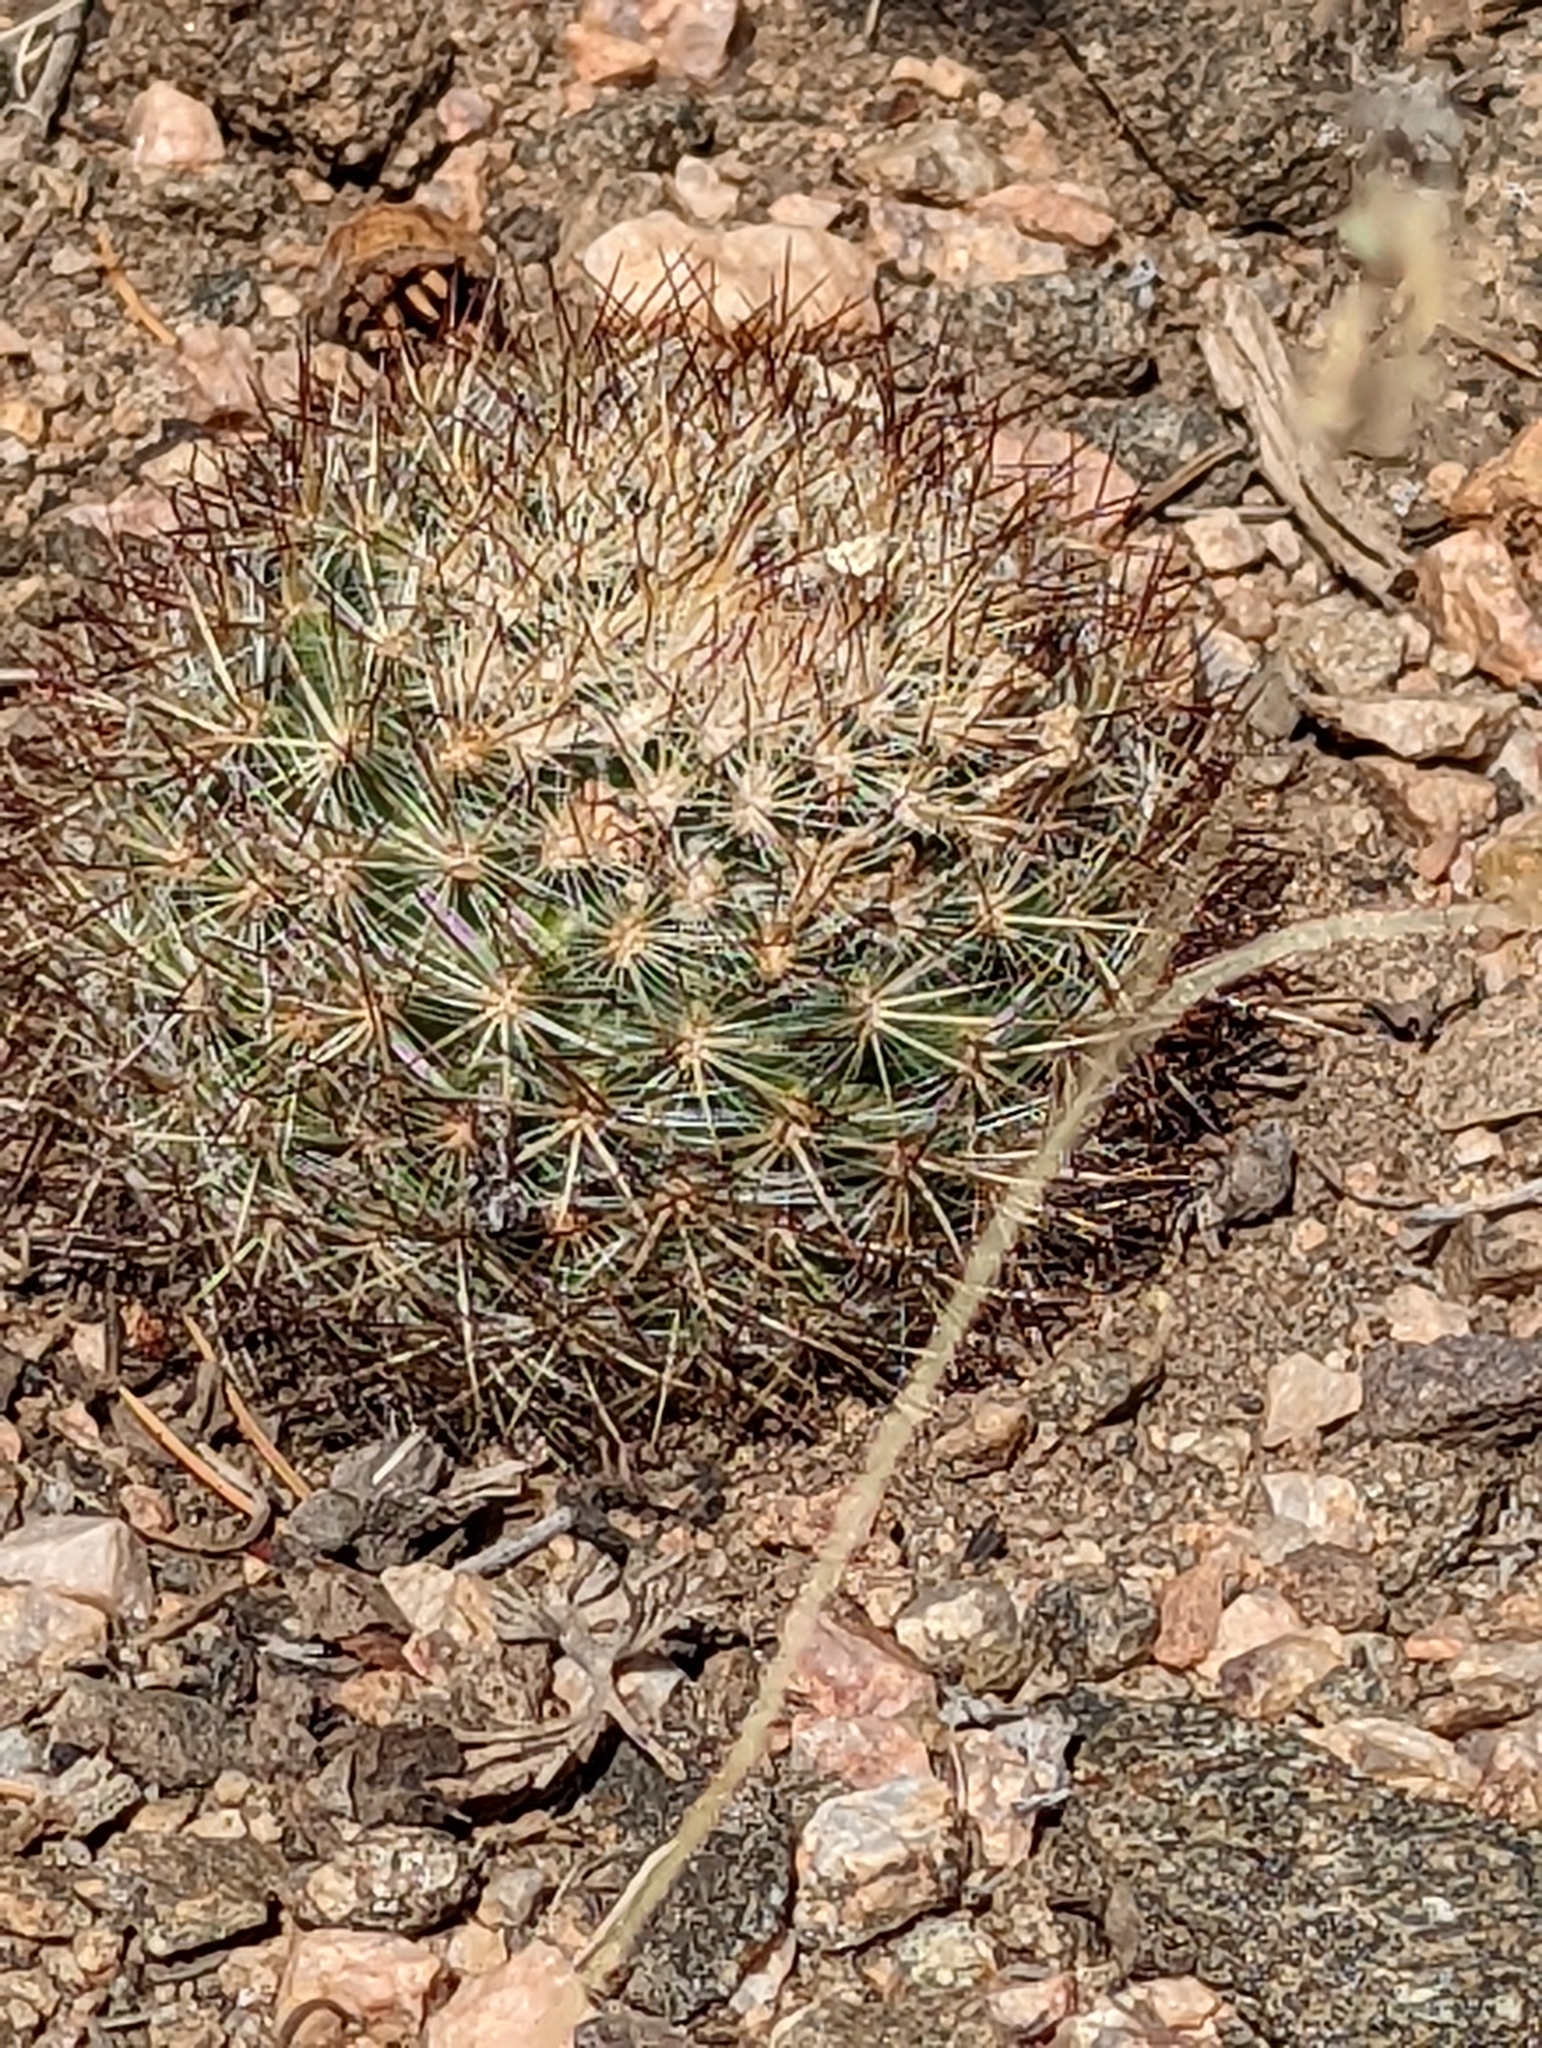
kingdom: Plantae
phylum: Tracheophyta
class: Magnoliopsida
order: Caryophyllales
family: Cactaceae
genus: Pediocactus
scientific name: Pediocactus simpsonii
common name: Simpson's hedgehog cactus
